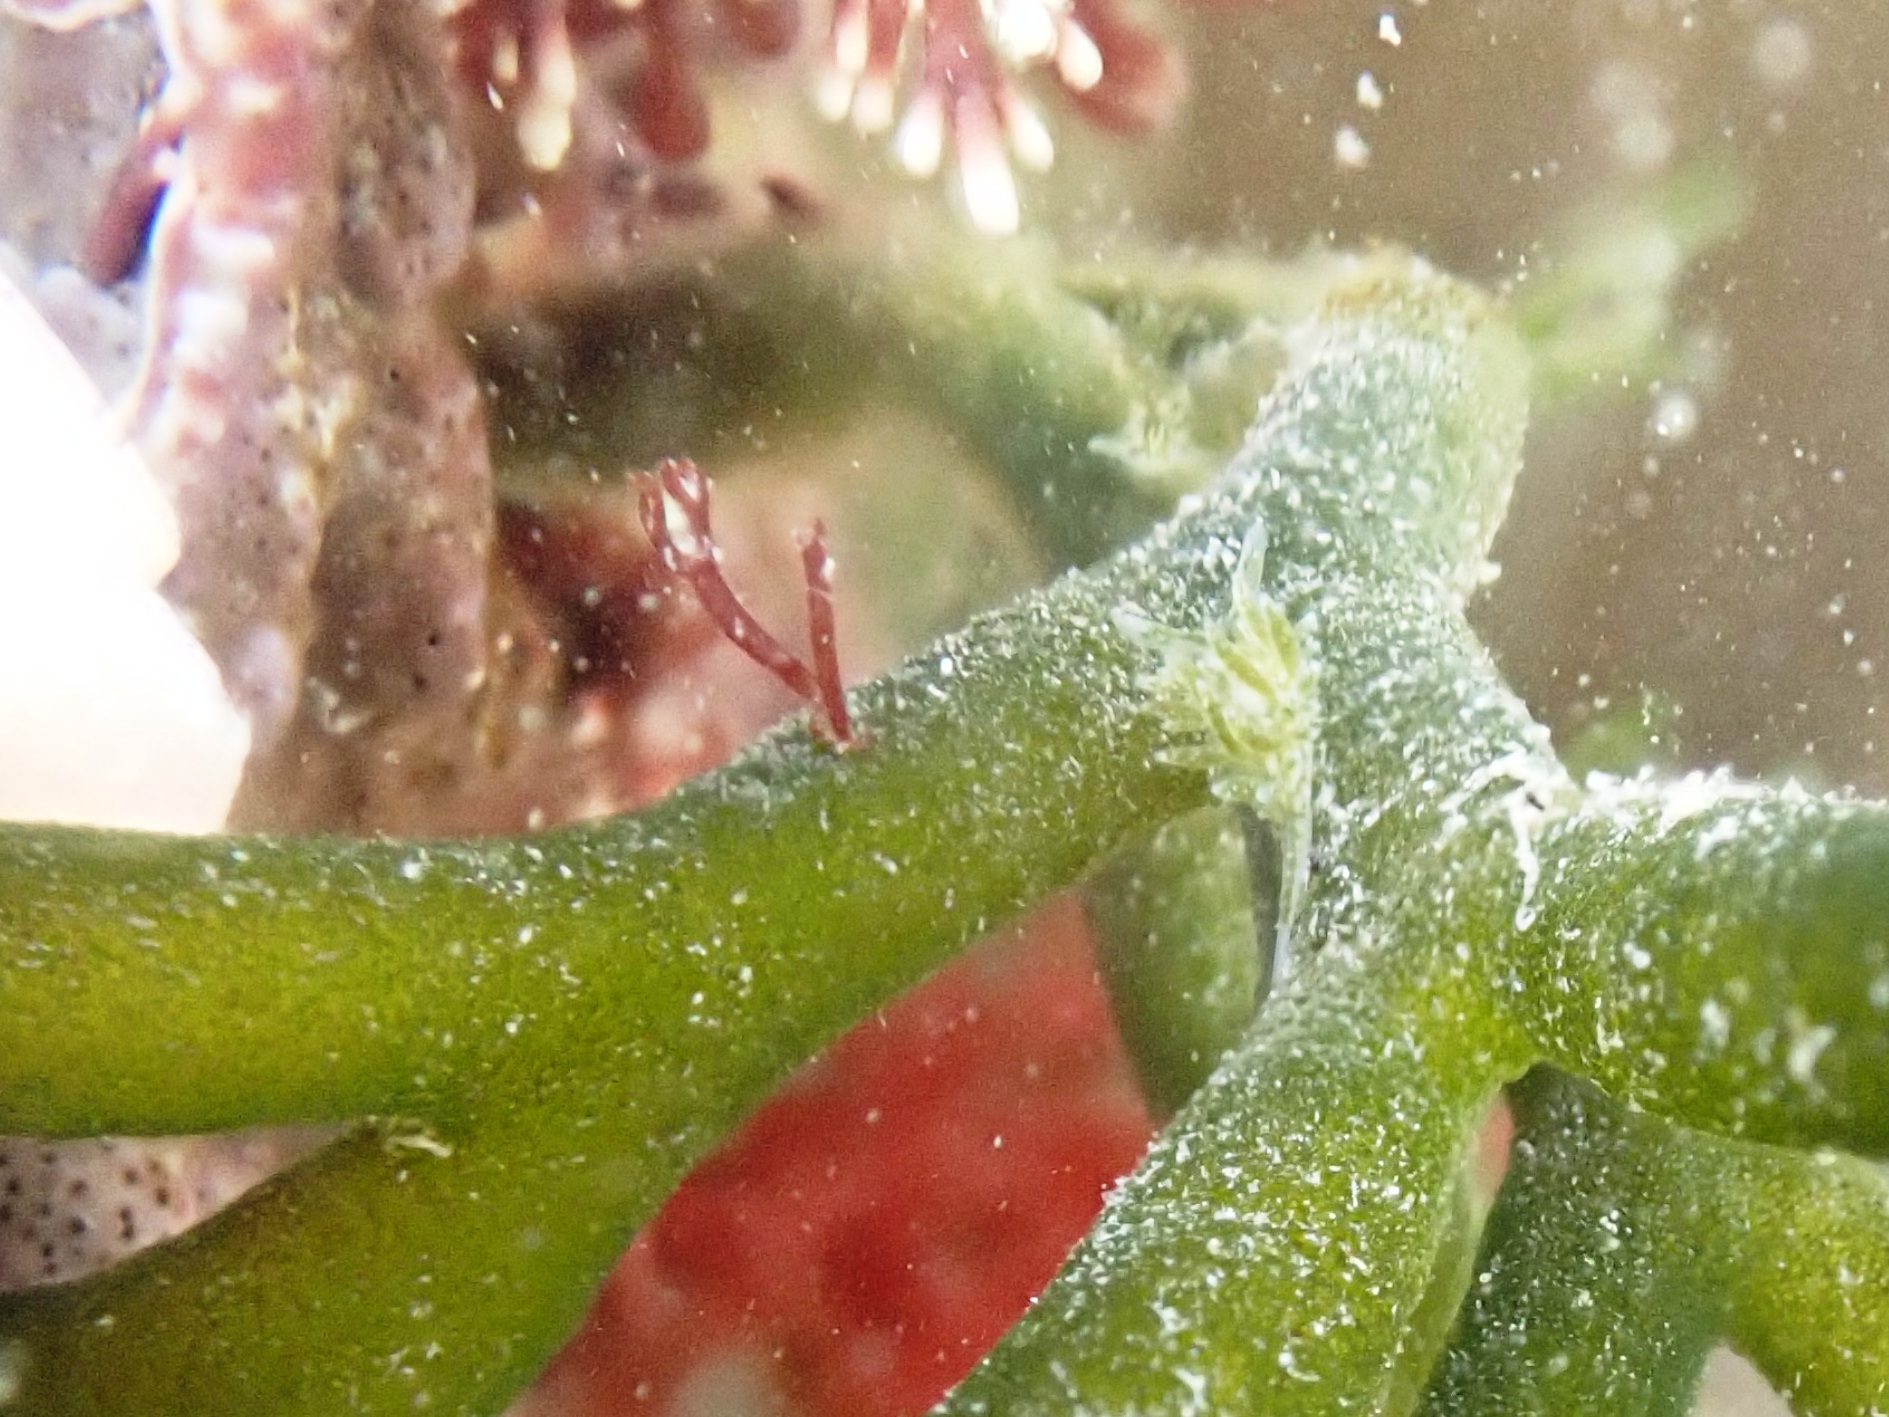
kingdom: Animalia
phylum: Mollusca
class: Gastropoda
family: Limapontiidae
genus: Placida
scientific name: Placida dendritica
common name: Dendritic nudibranch
